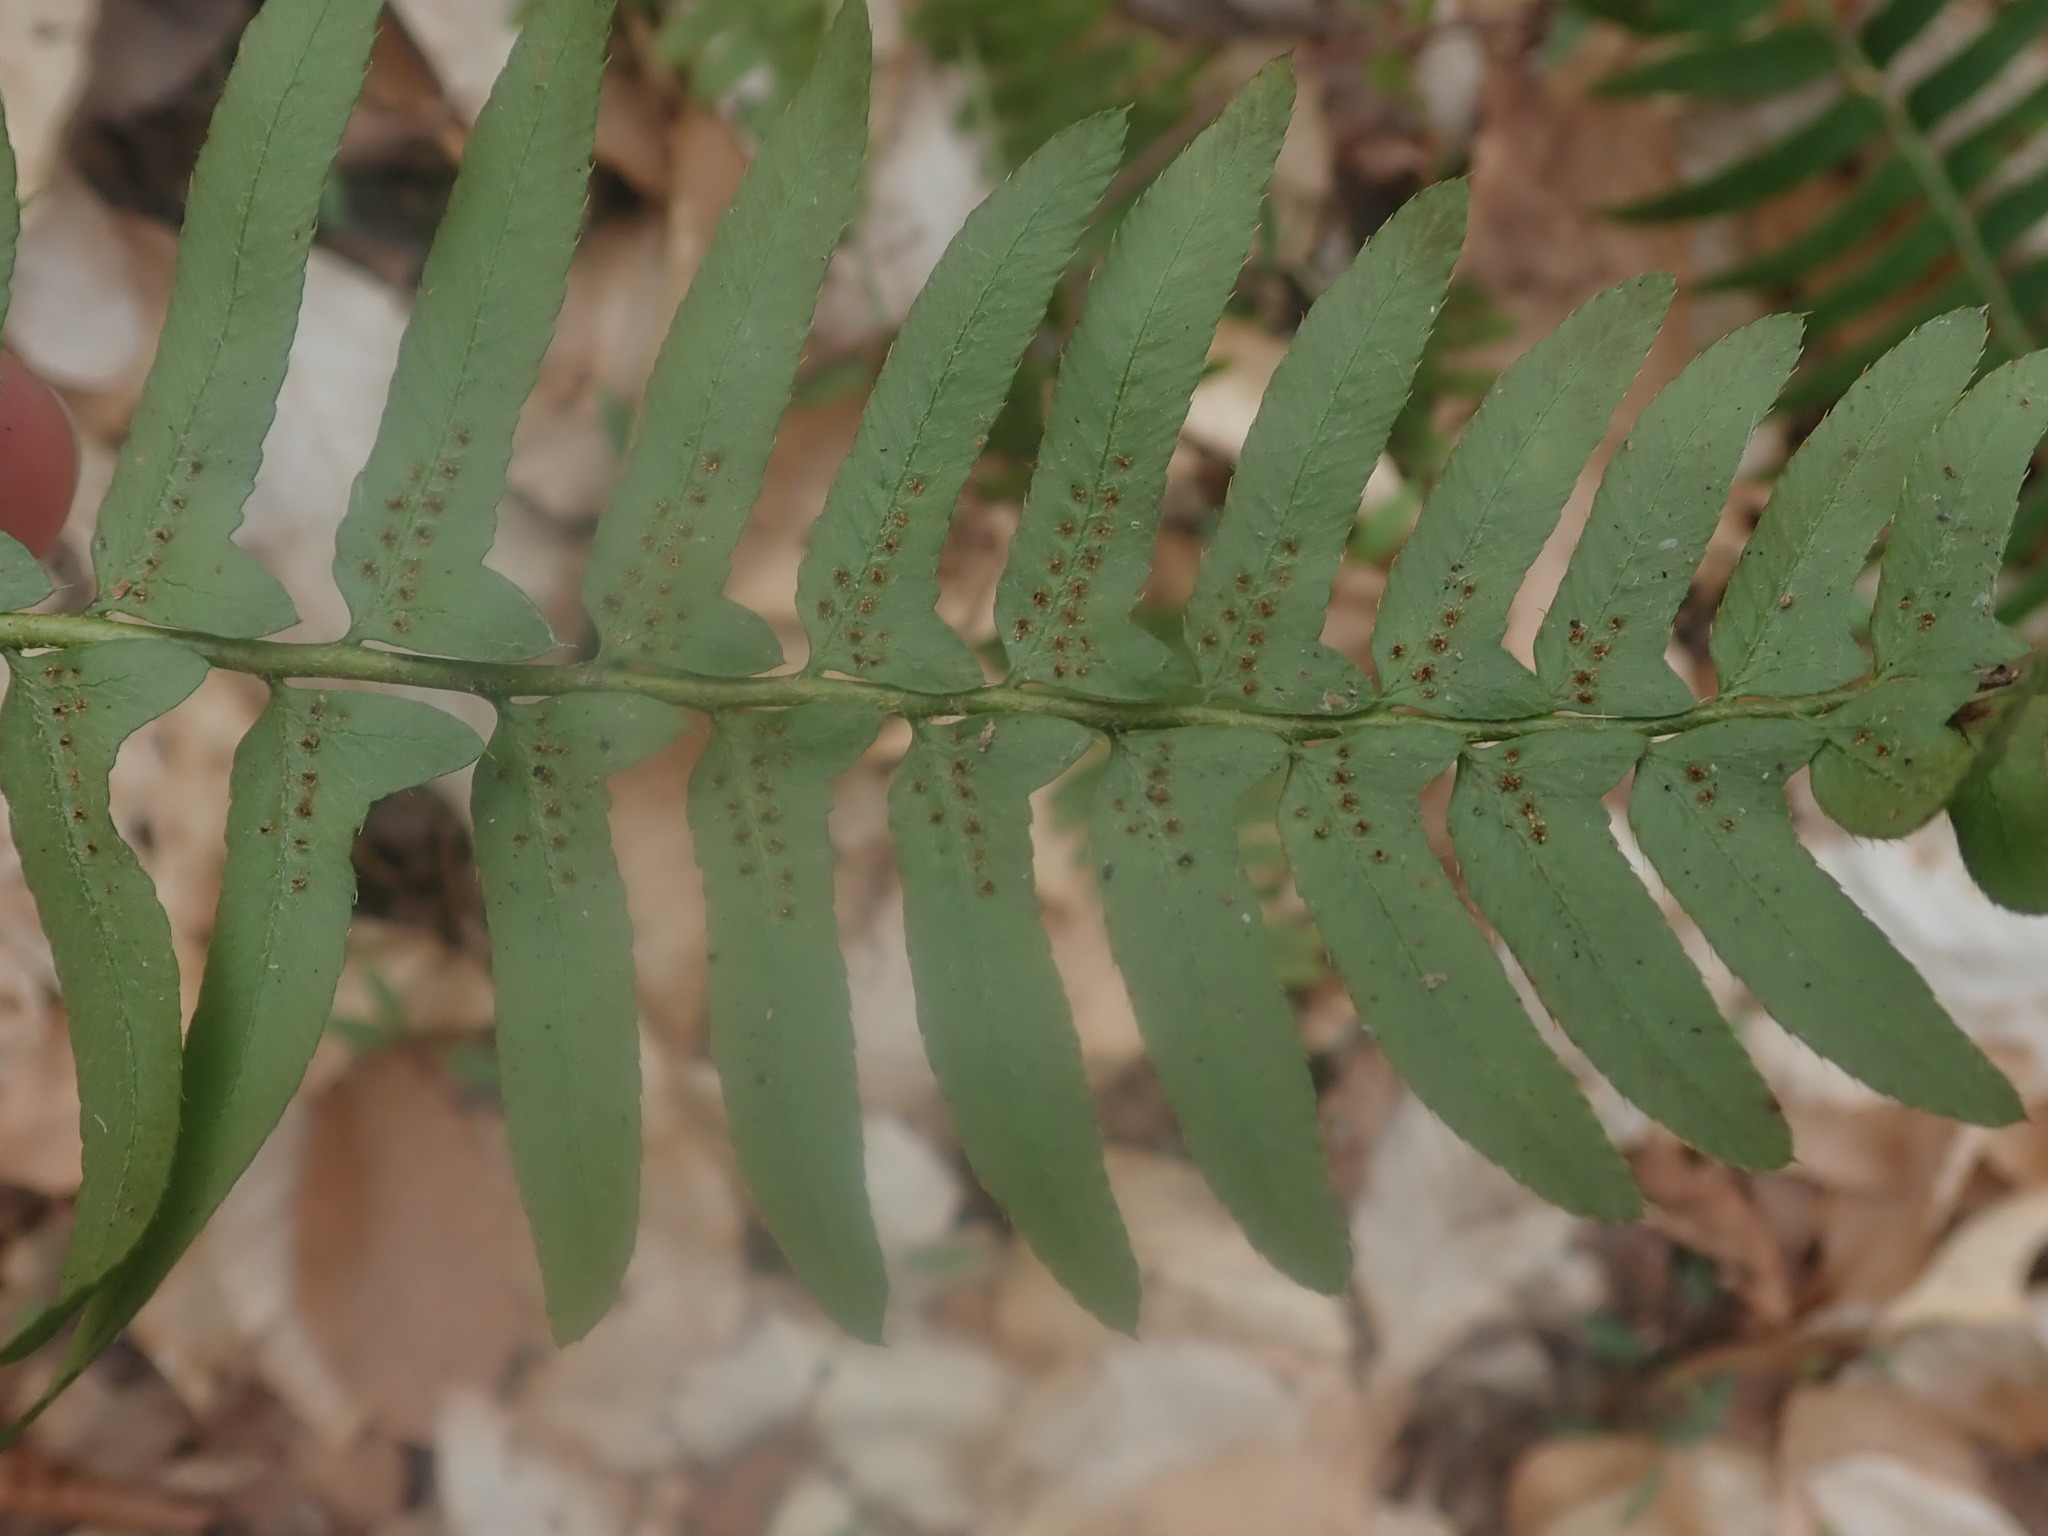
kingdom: Plantae
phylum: Tracheophyta
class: Polypodiopsida
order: Polypodiales
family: Dryopteridaceae
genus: Polystichum
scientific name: Polystichum acrostichoides
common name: Christmas fern
